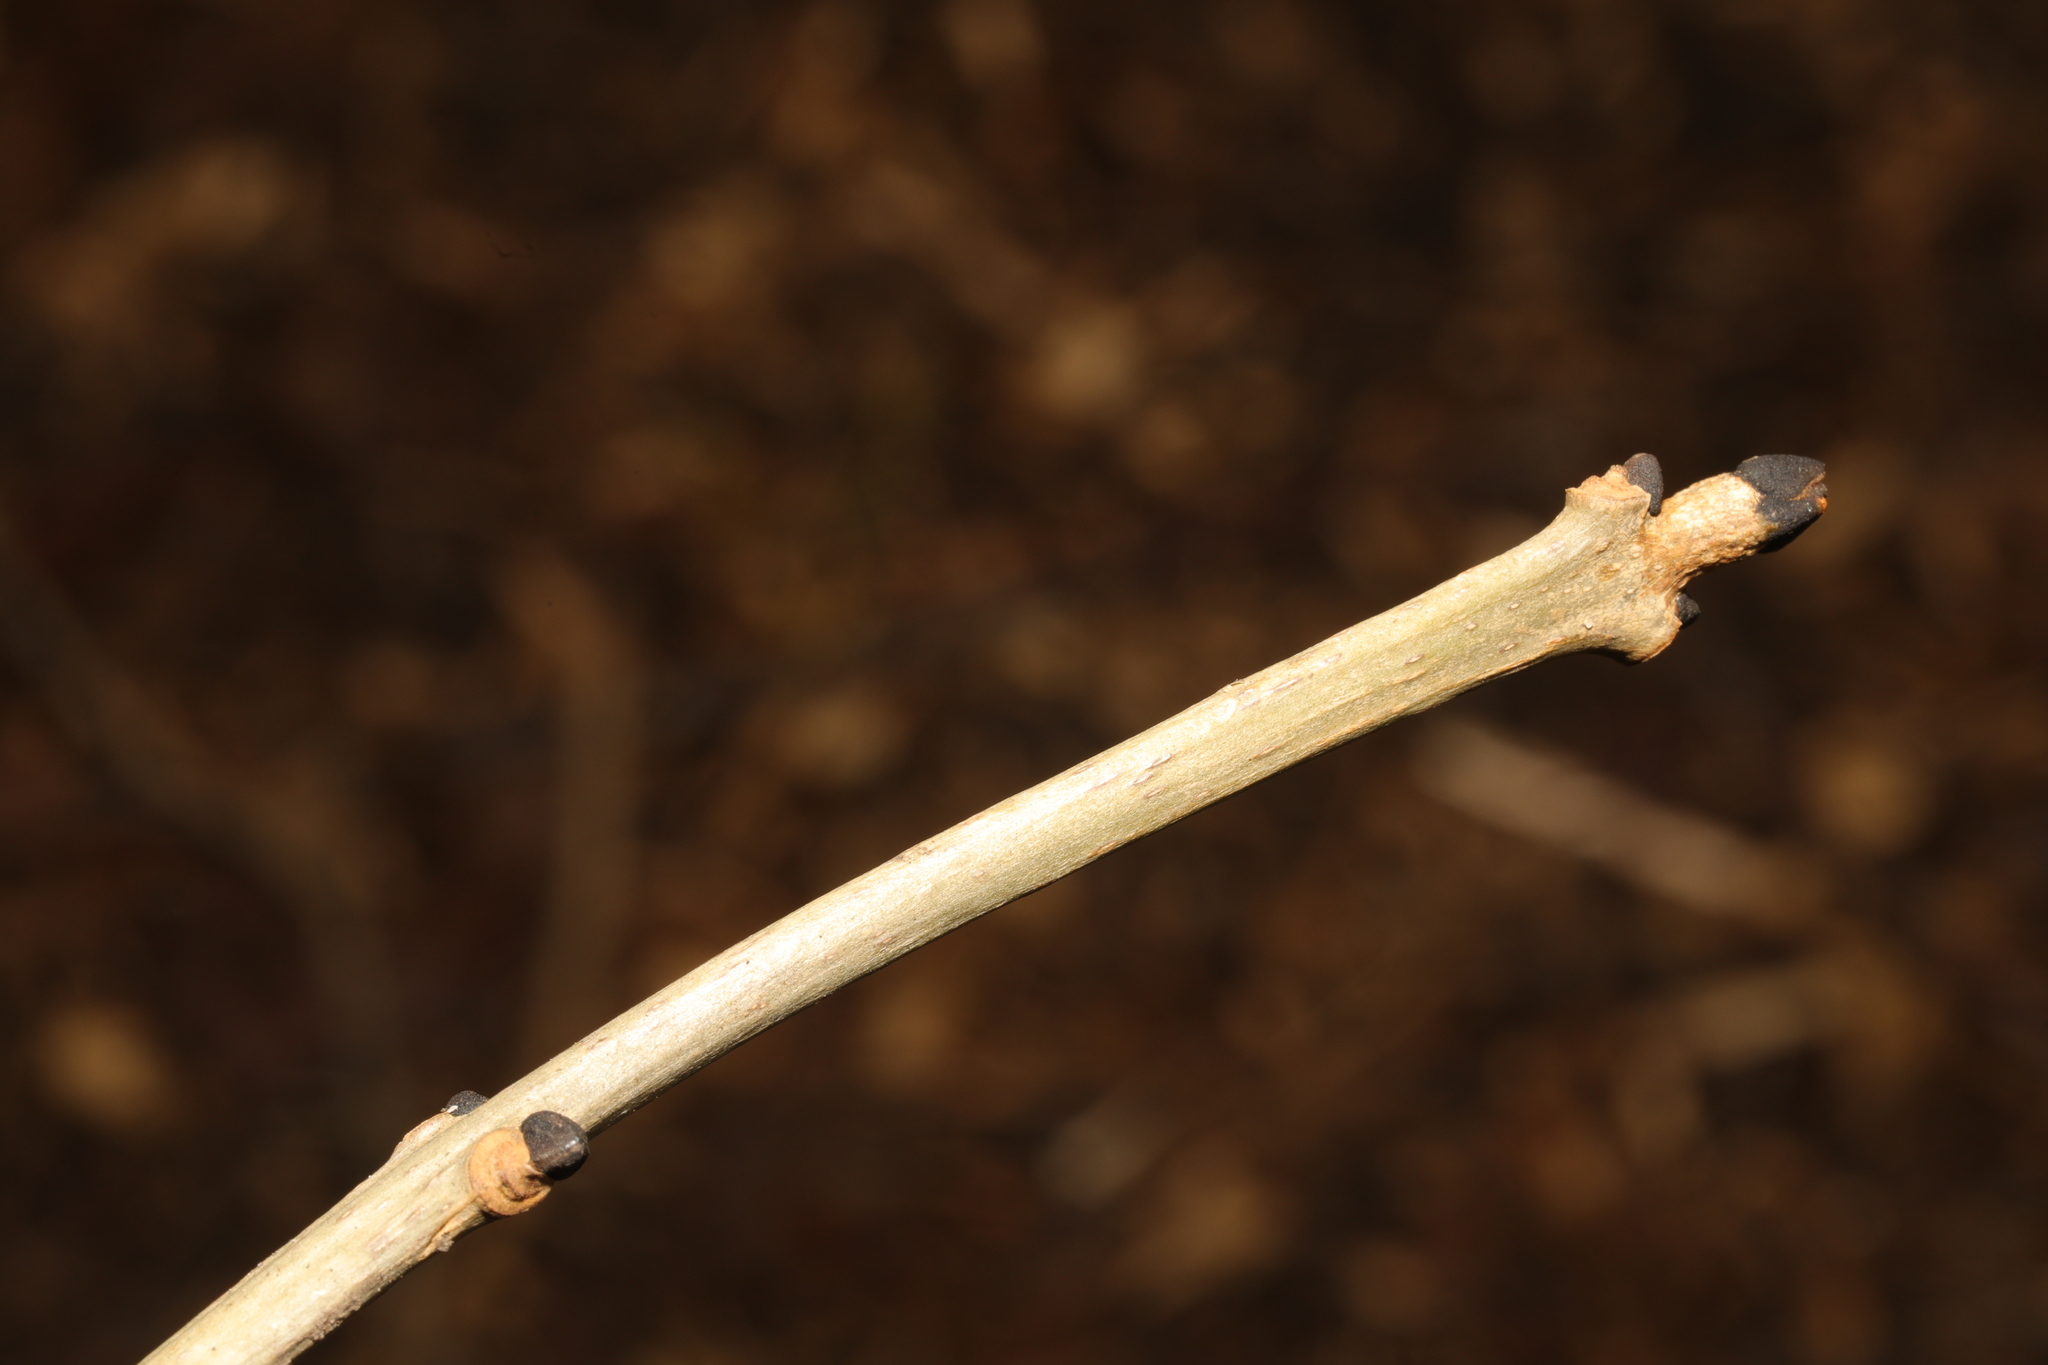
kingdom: Plantae
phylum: Tracheophyta
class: Magnoliopsida
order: Lamiales
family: Oleaceae
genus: Fraxinus
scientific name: Fraxinus excelsior
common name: European ash
